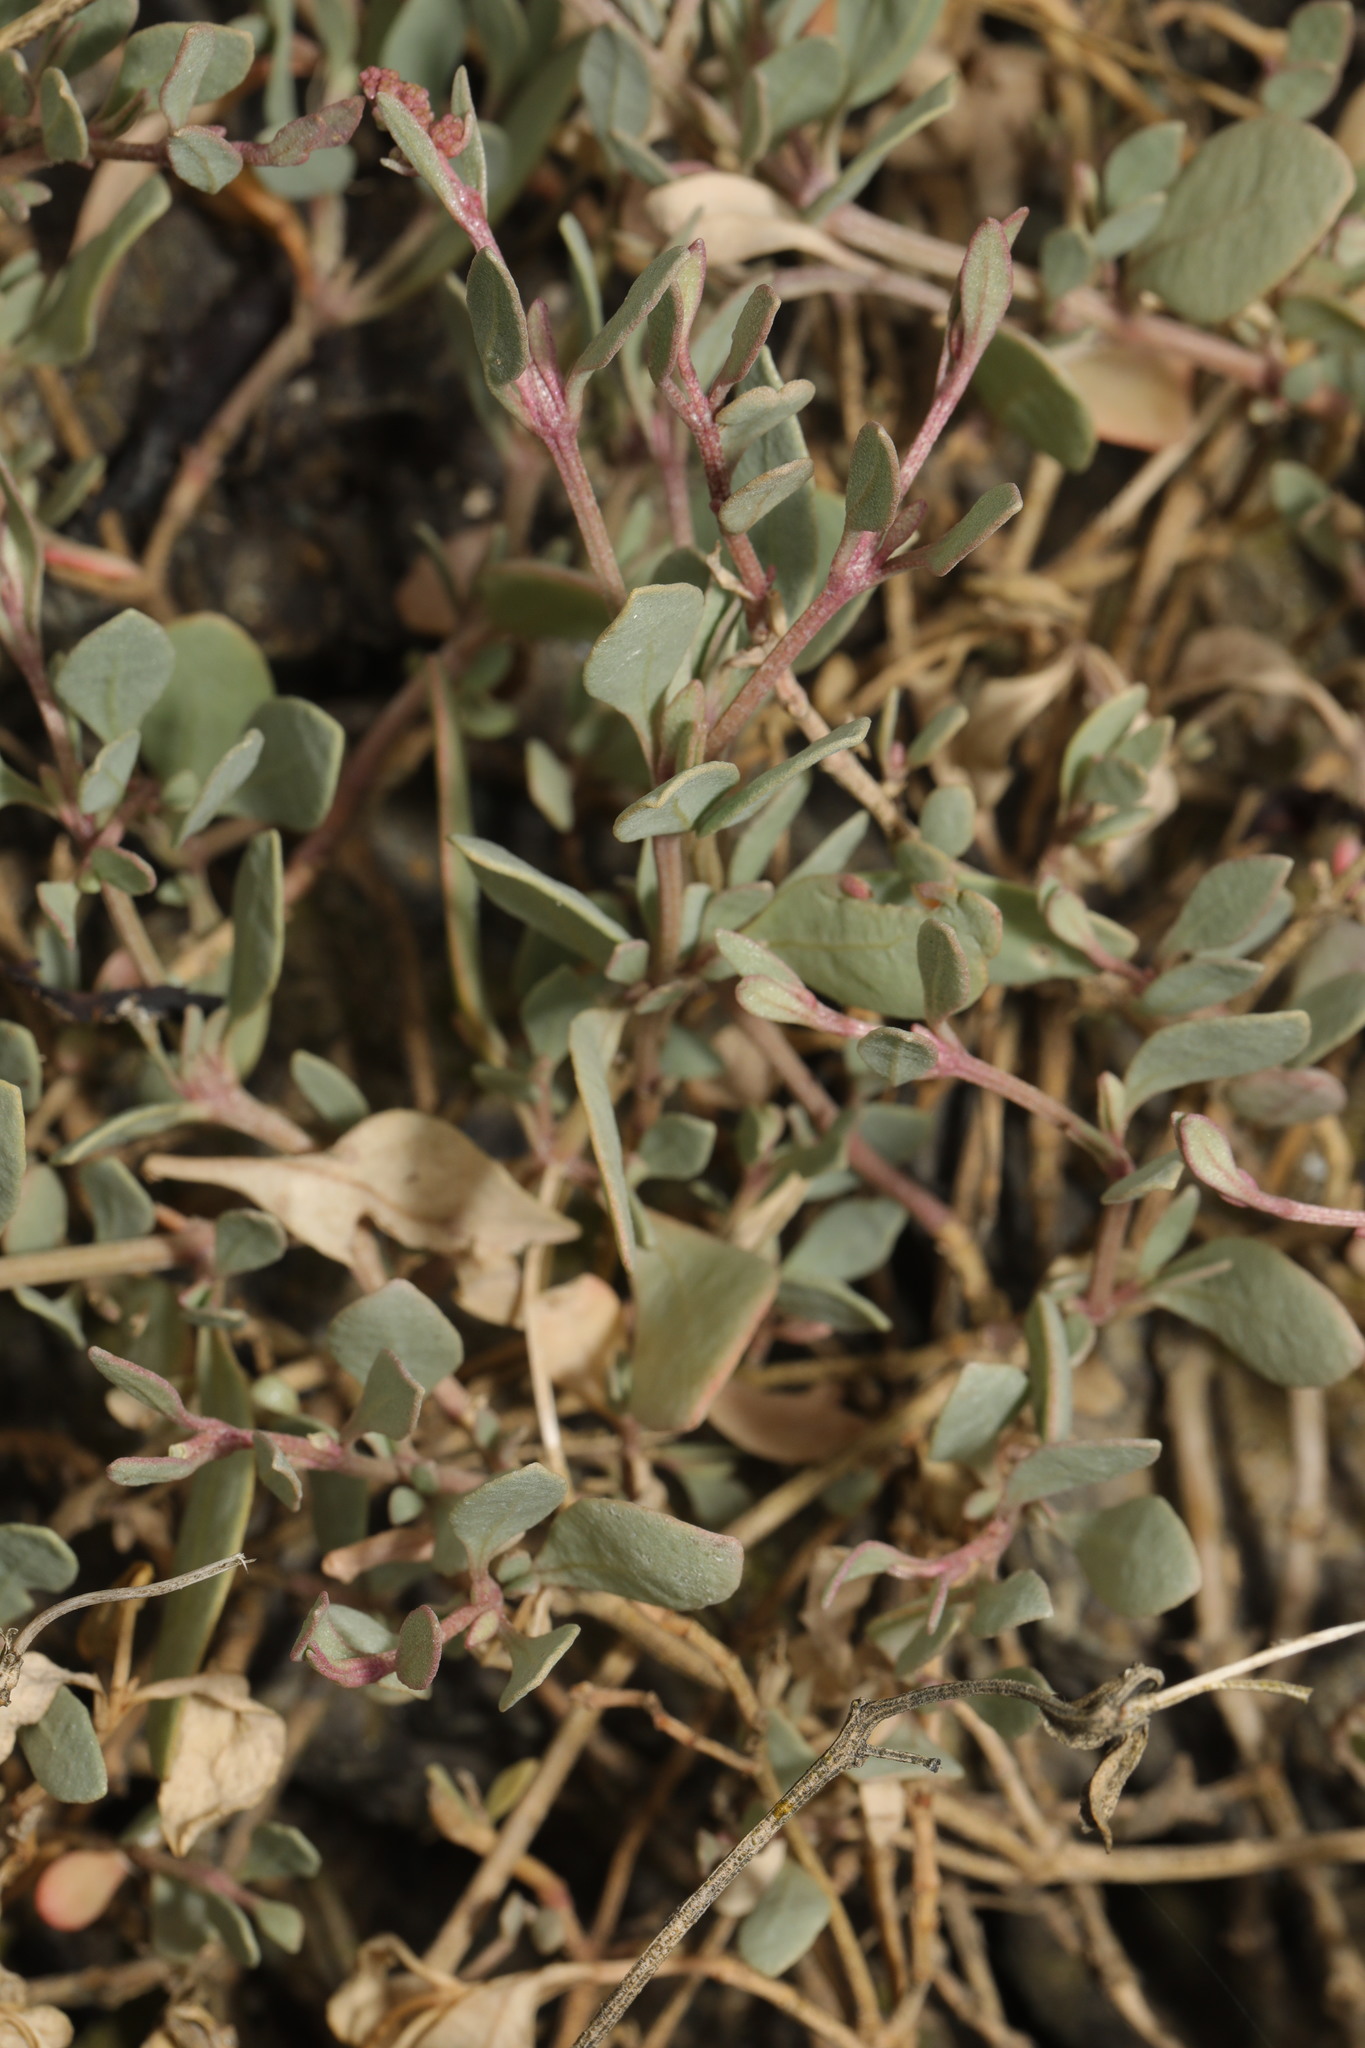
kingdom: Plantae
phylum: Tracheophyta
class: Magnoliopsida
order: Caryophyllales
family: Amaranthaceae
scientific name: Amaranthaceae
